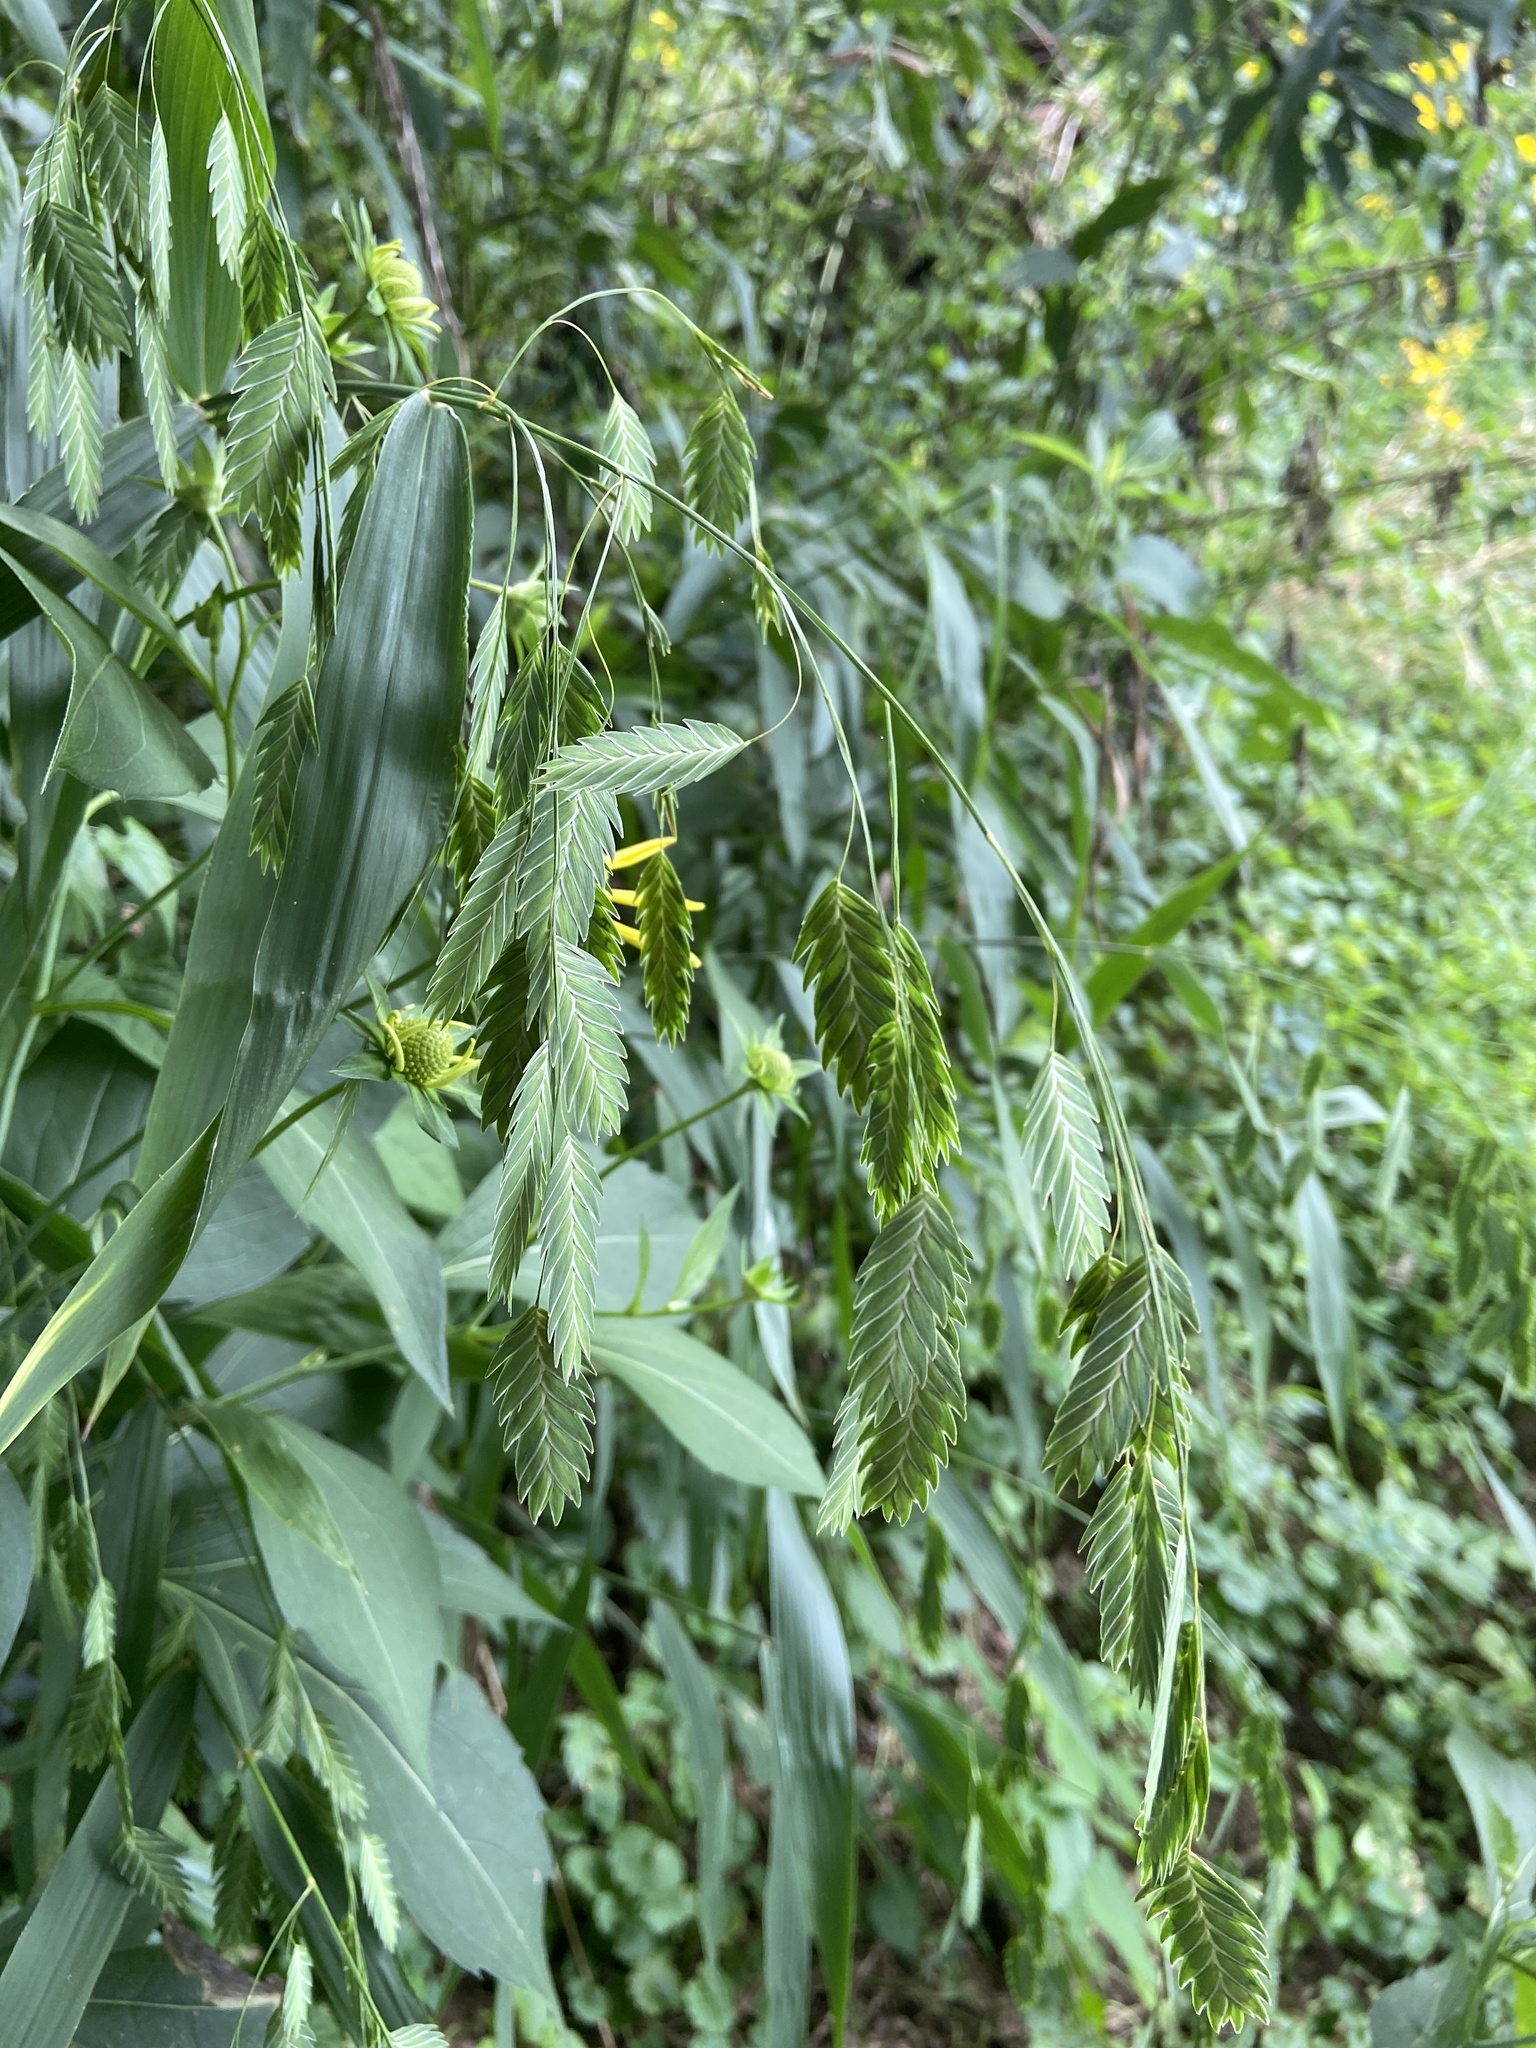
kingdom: Plantae
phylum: Tracheophyta
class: Liliopsida
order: Poales
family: Poaceae
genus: Chasmanthium
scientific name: Chasmanthium latifolium
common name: Broad-leaved chasmanthium
